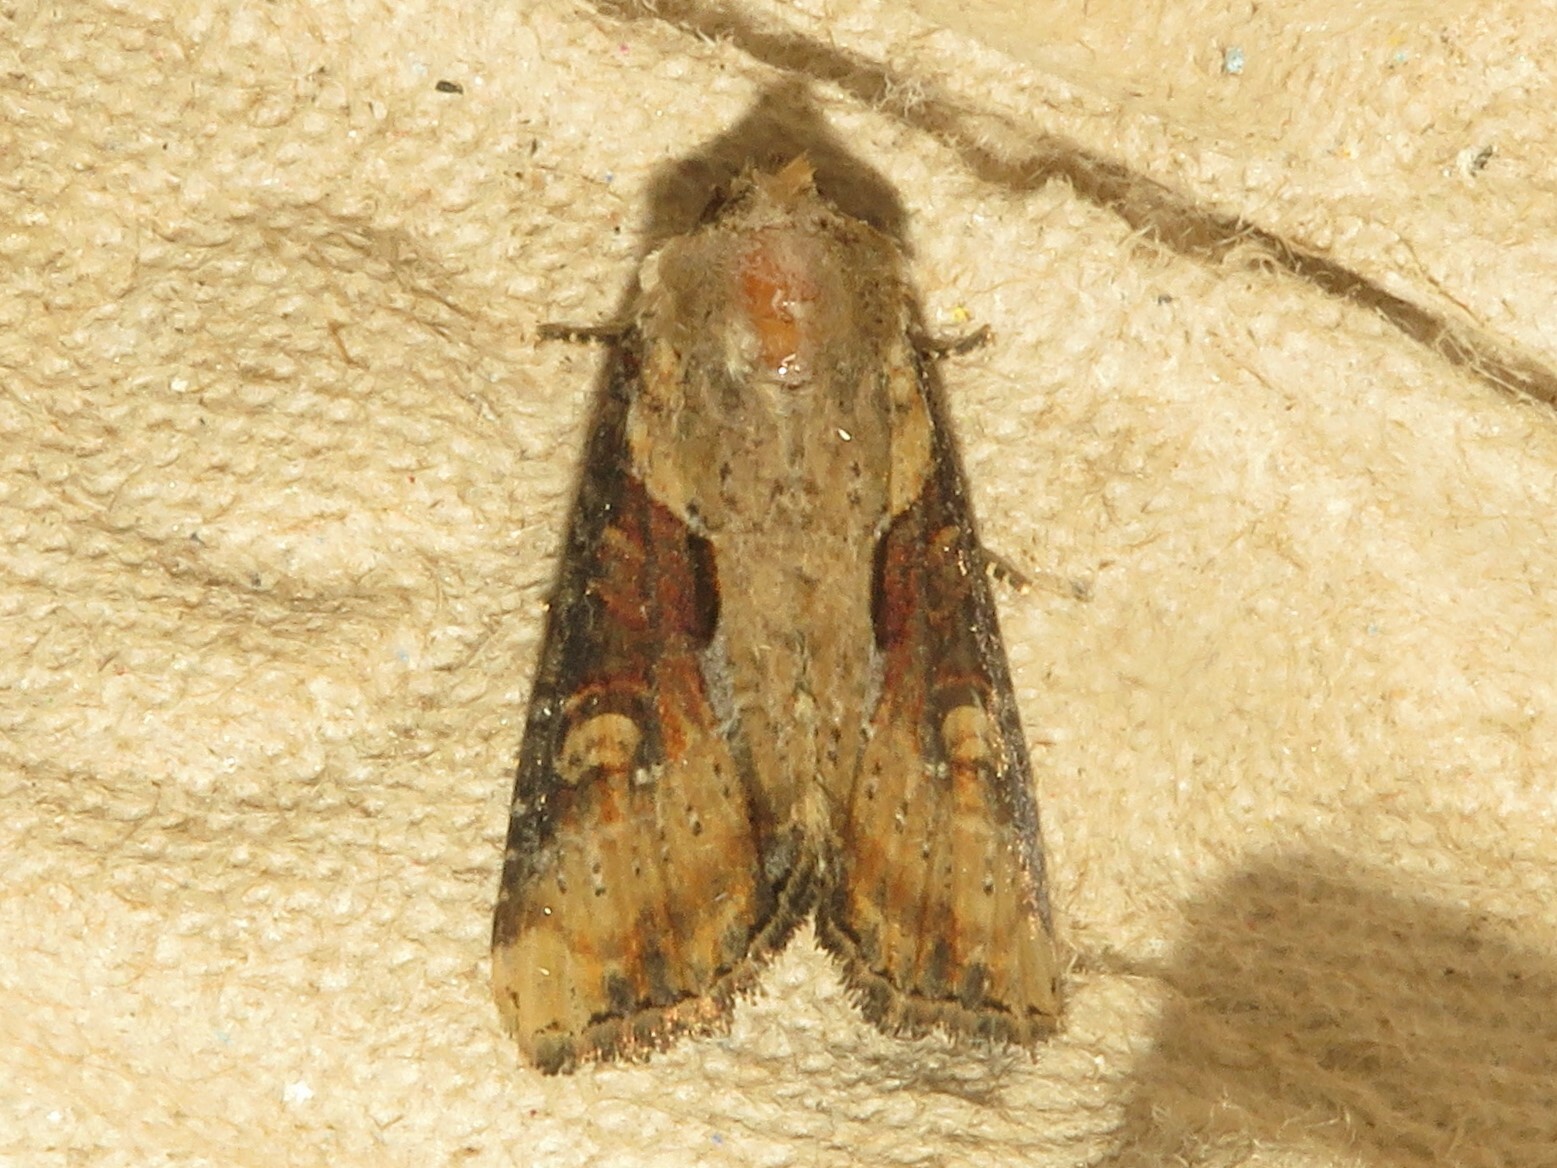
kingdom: Animalia
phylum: Arthropoda
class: Insecta
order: Lepidoptera
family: Noctuidae
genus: Lateroligia
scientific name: Lateroligia ophiogramma
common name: Double lobed
